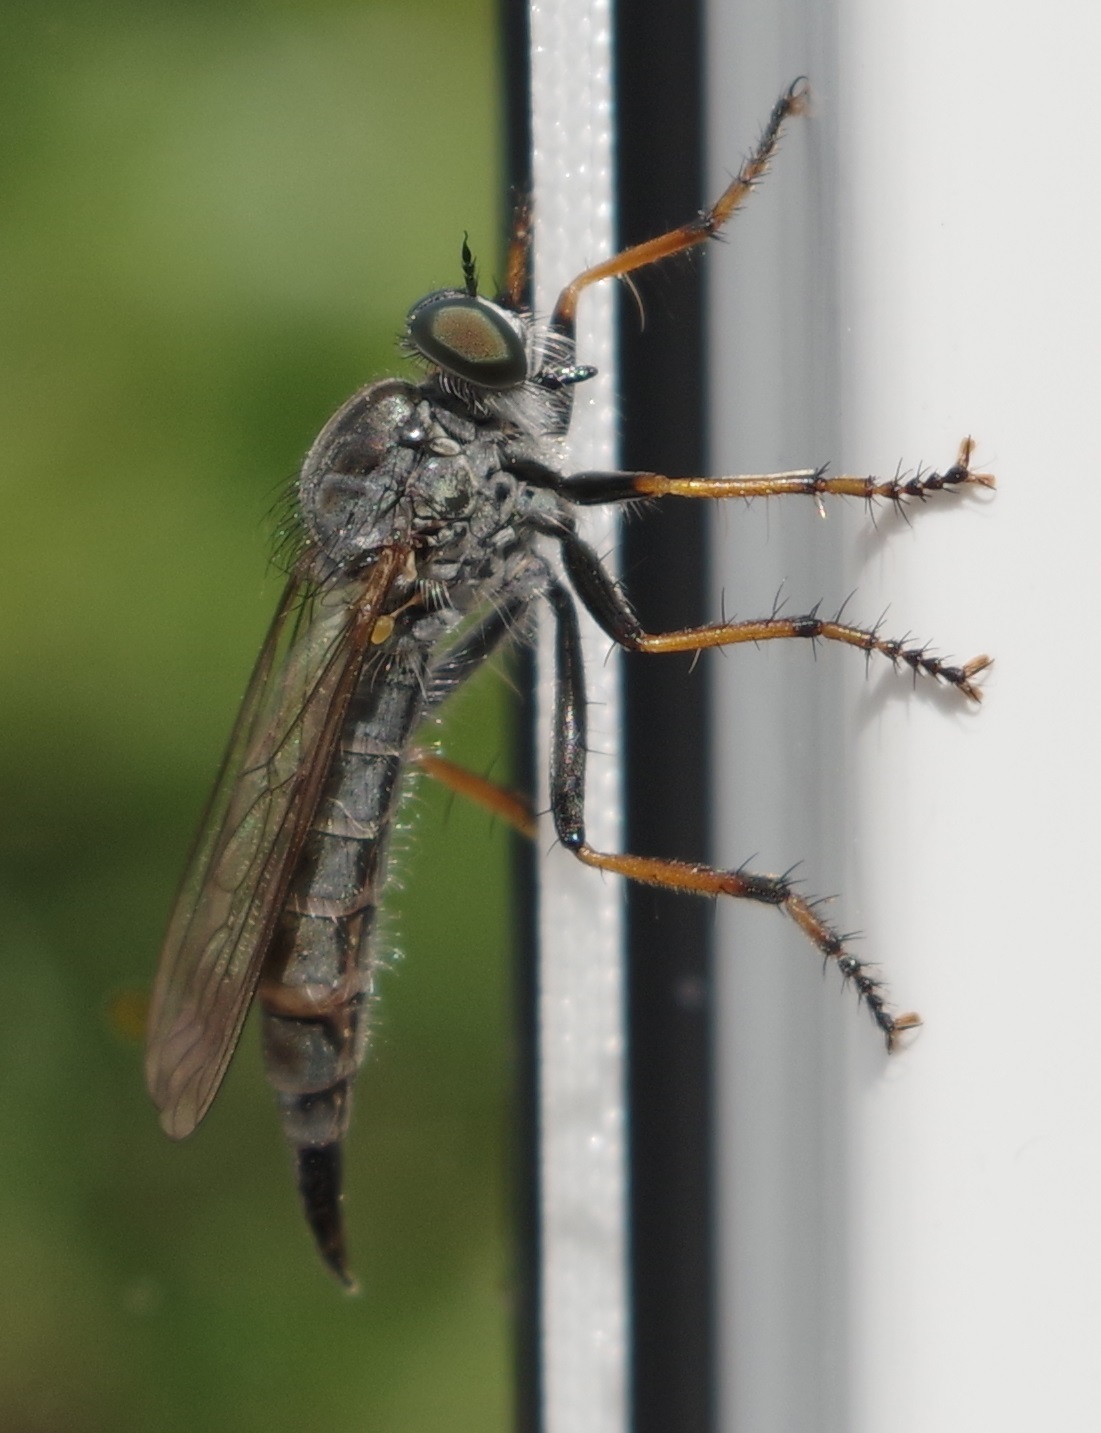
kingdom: Animalia
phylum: Arthropoda
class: Insecta
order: Diptera
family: Asilidae
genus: Paritamus
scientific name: Paritamus geniculatus
